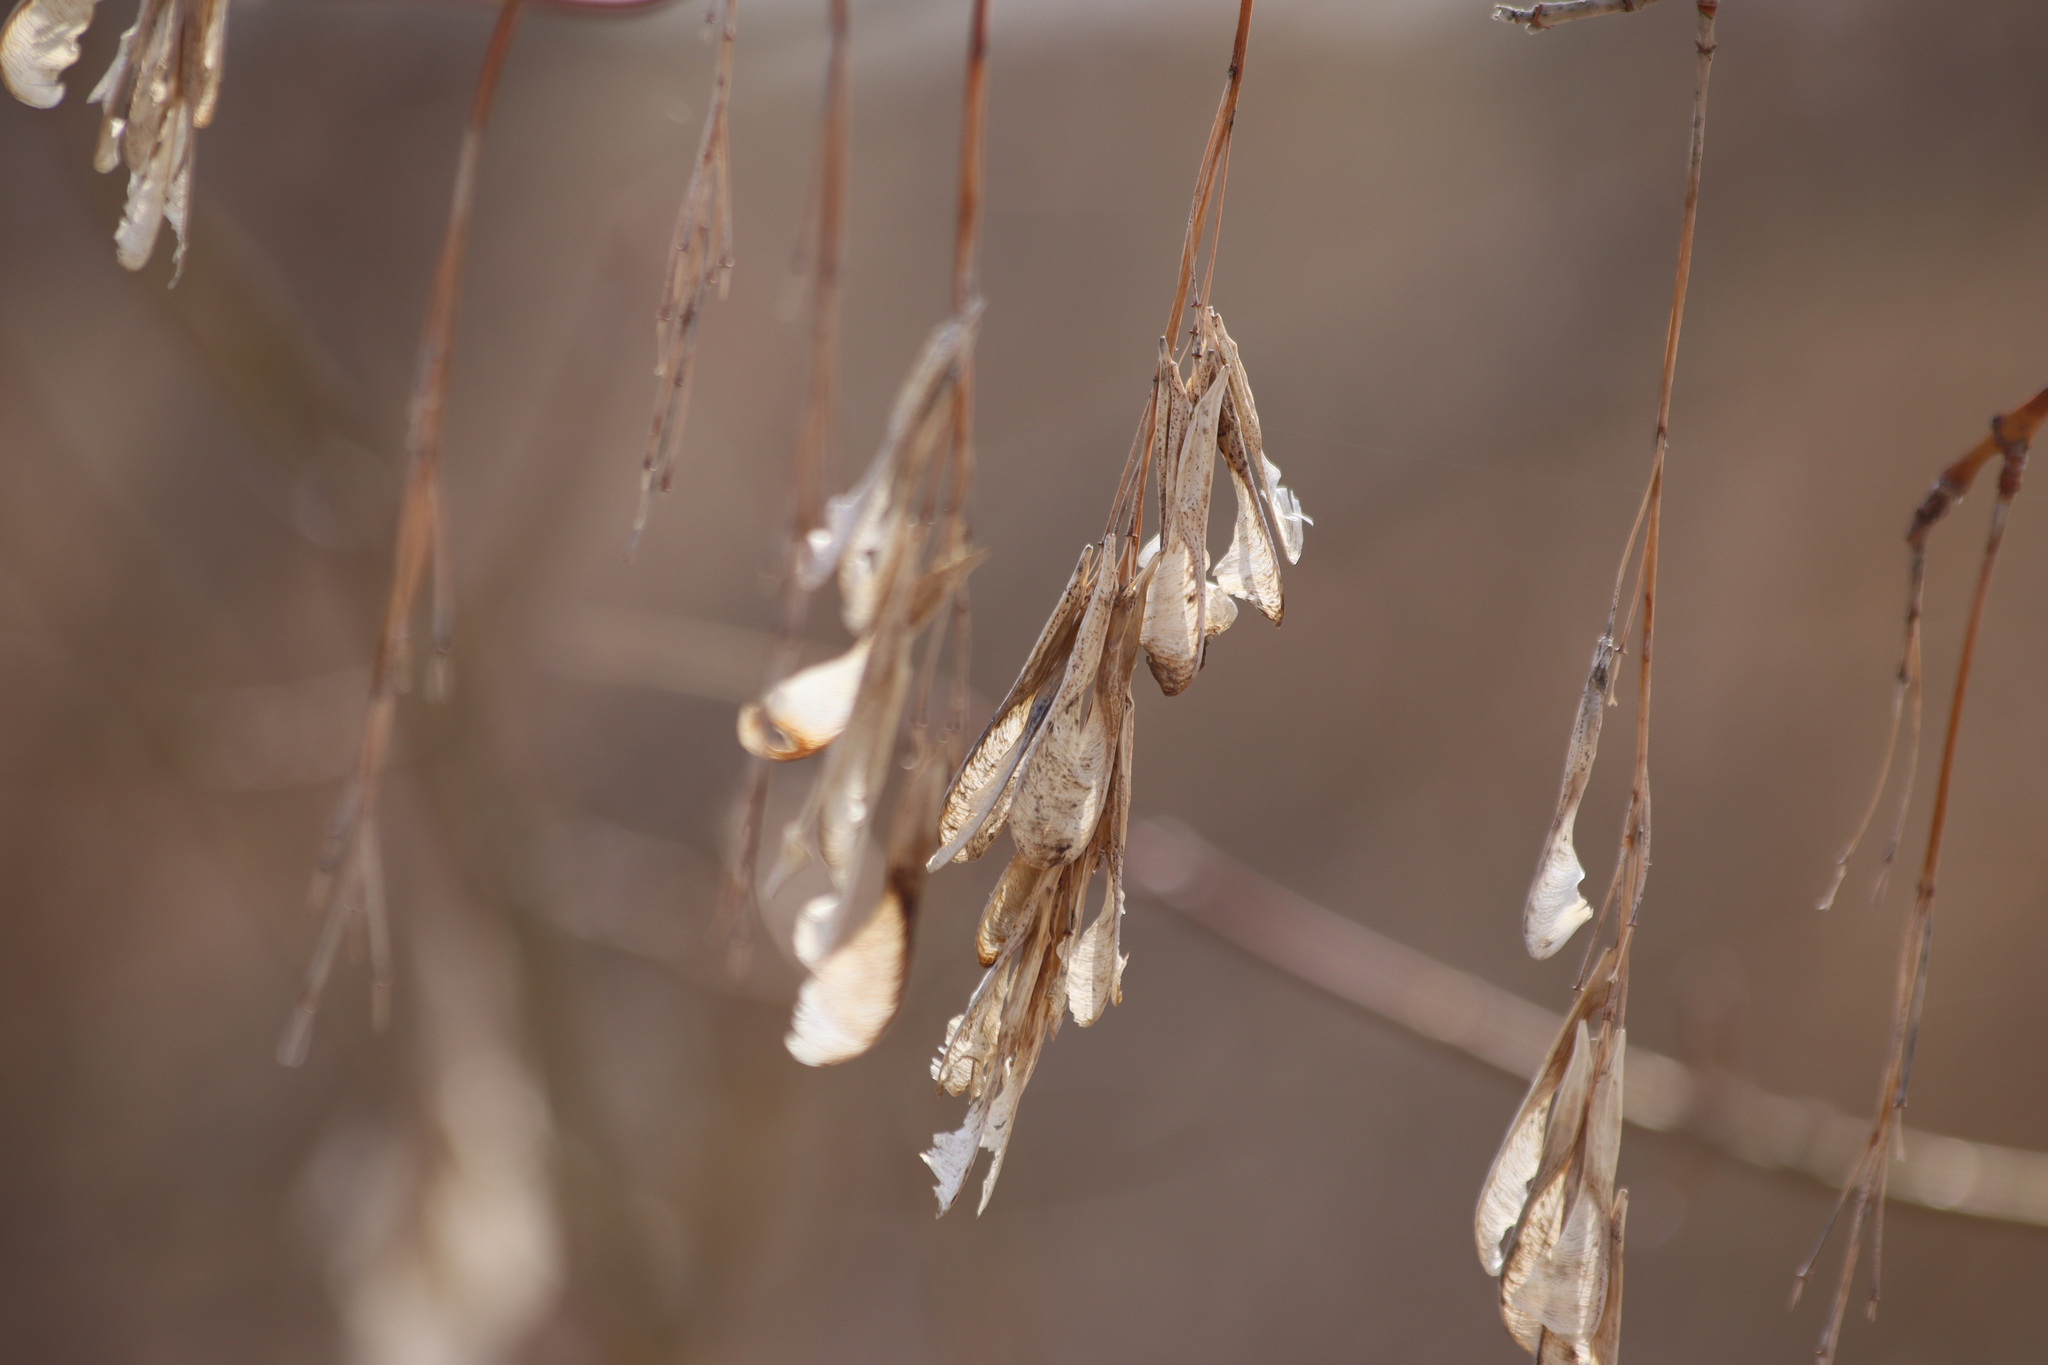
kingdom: Plantae
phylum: Tracheophyta
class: Magnoliopsida
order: Sapindales
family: Sapindaceae
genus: Acer
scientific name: Acer negundo
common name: Ashleaf maple
